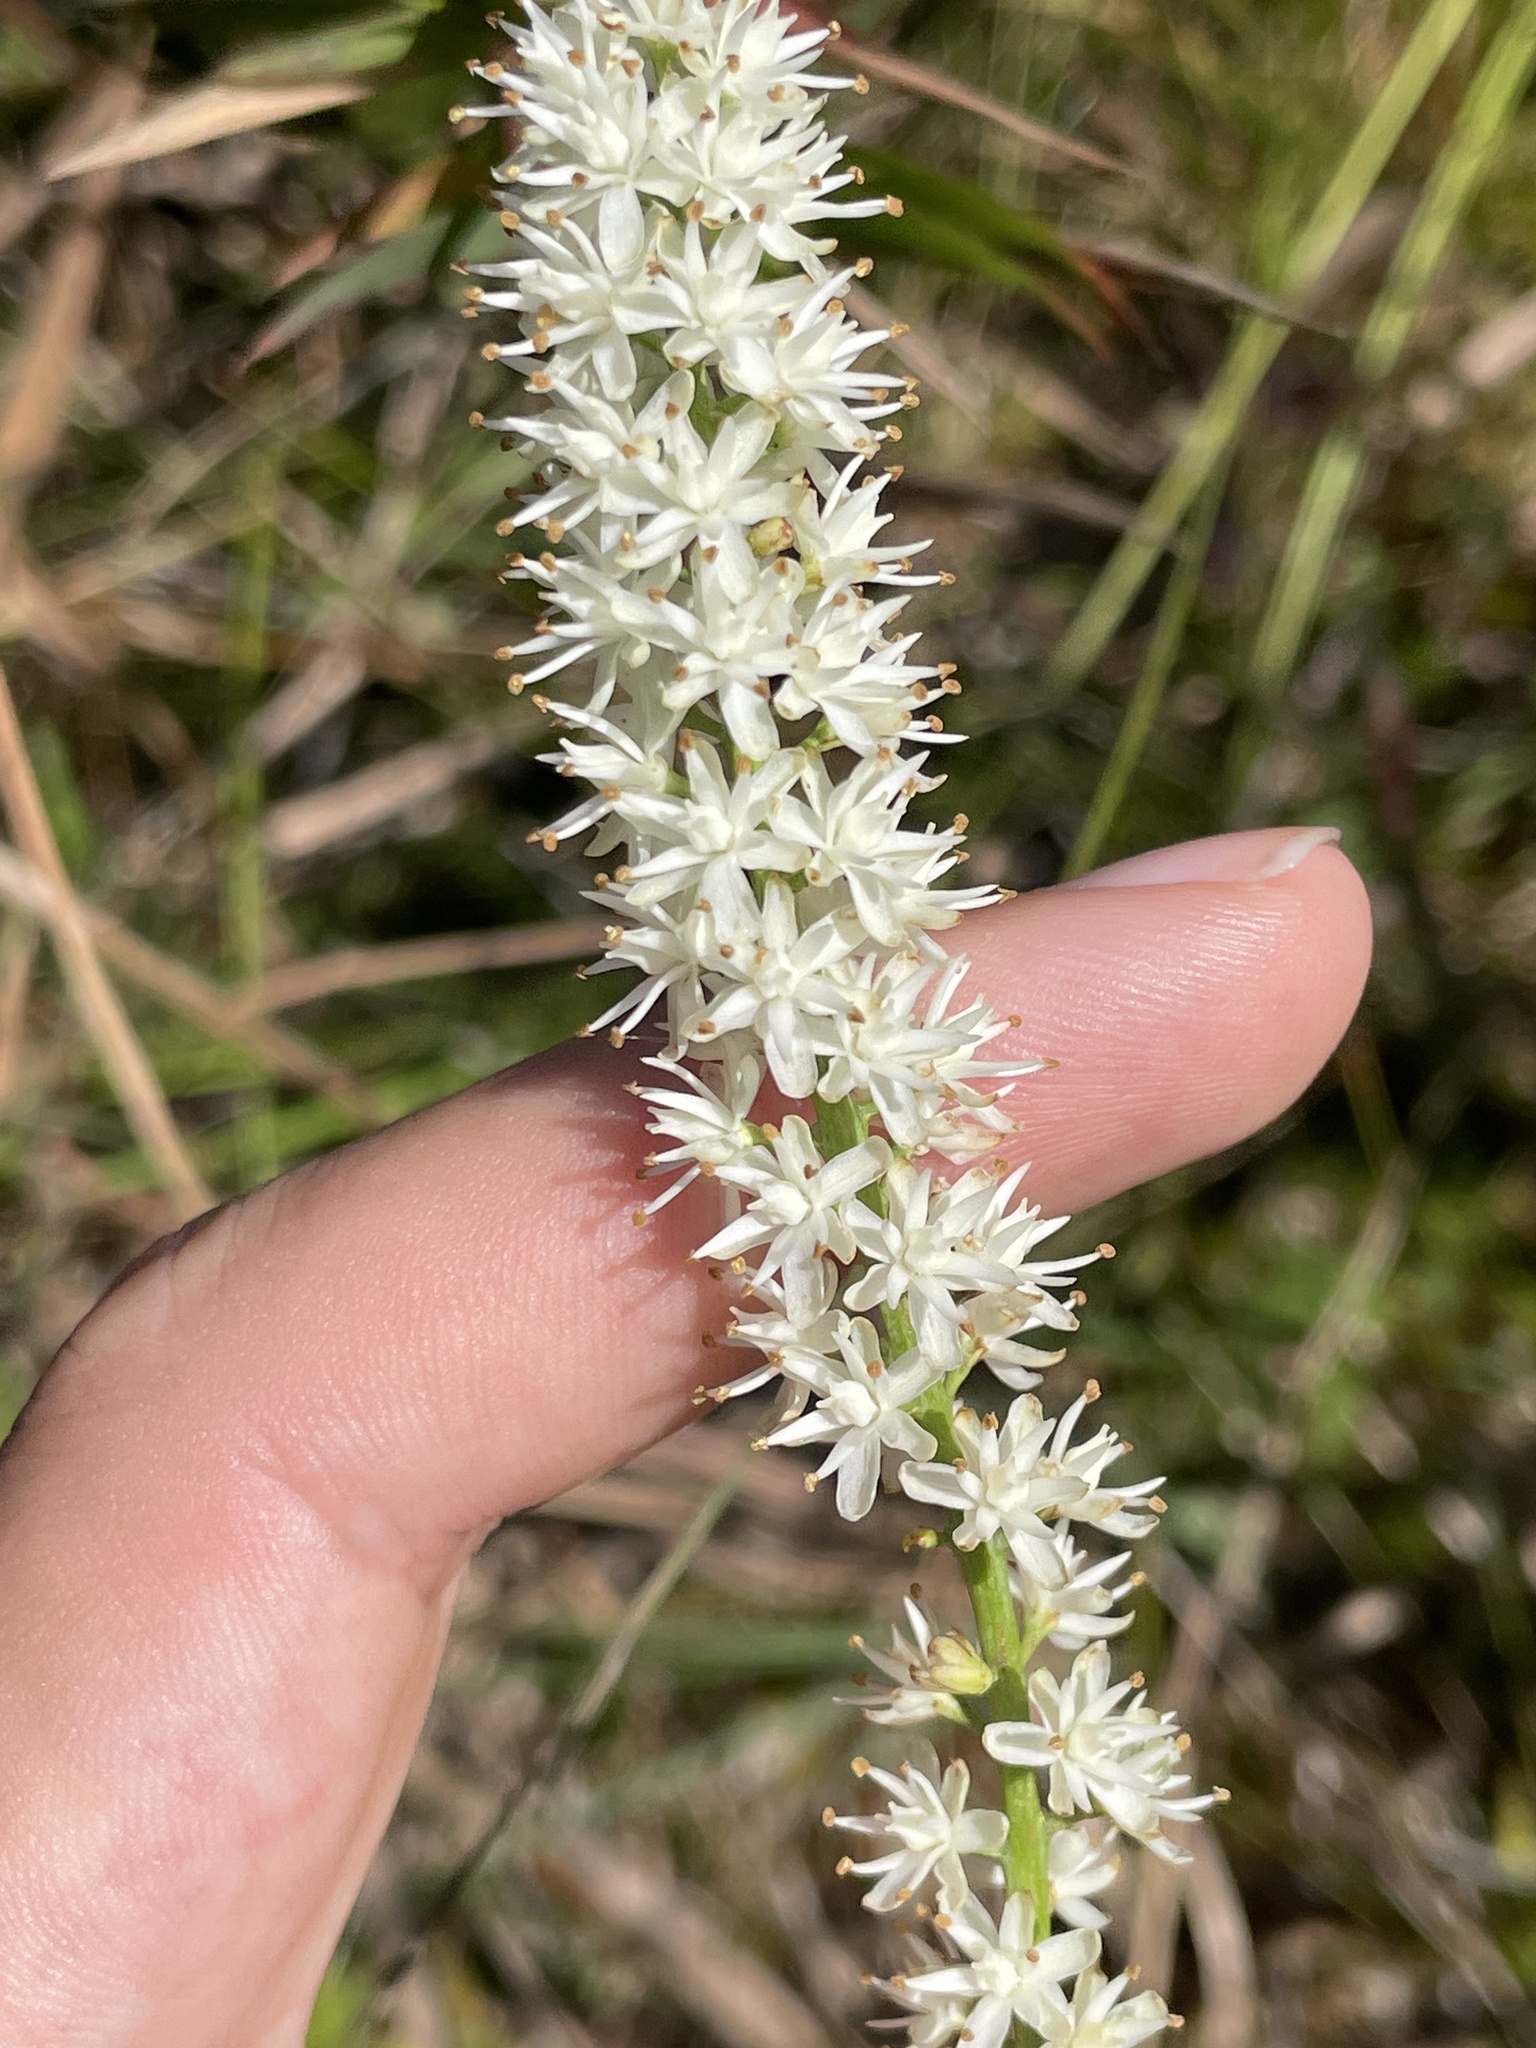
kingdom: Plantae
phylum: Tracheophyta
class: Liliopsida
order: Alismatales
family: Tofieldiaceae
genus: Tofieldia
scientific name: Tofieldia glabra
